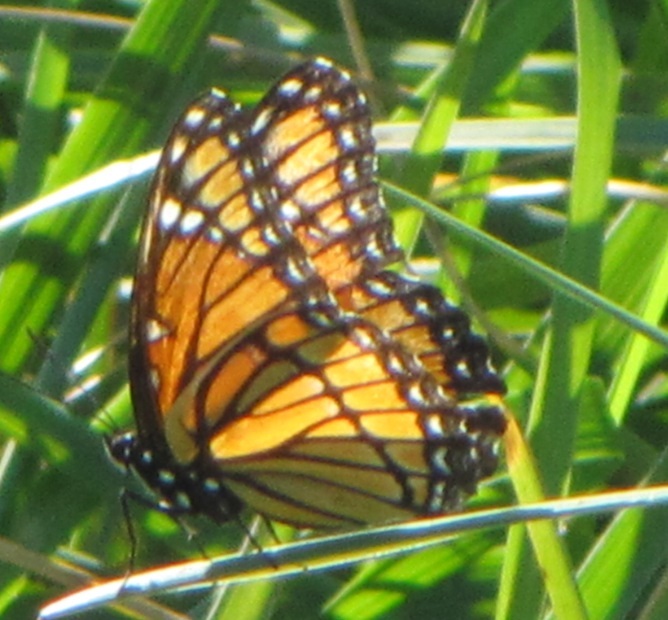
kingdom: Animalia
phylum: Arthropoda
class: Insecta
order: Lepidoptera
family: Nymphalidae
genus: Limenitis
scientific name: Limenitis archippus
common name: Viceroy
